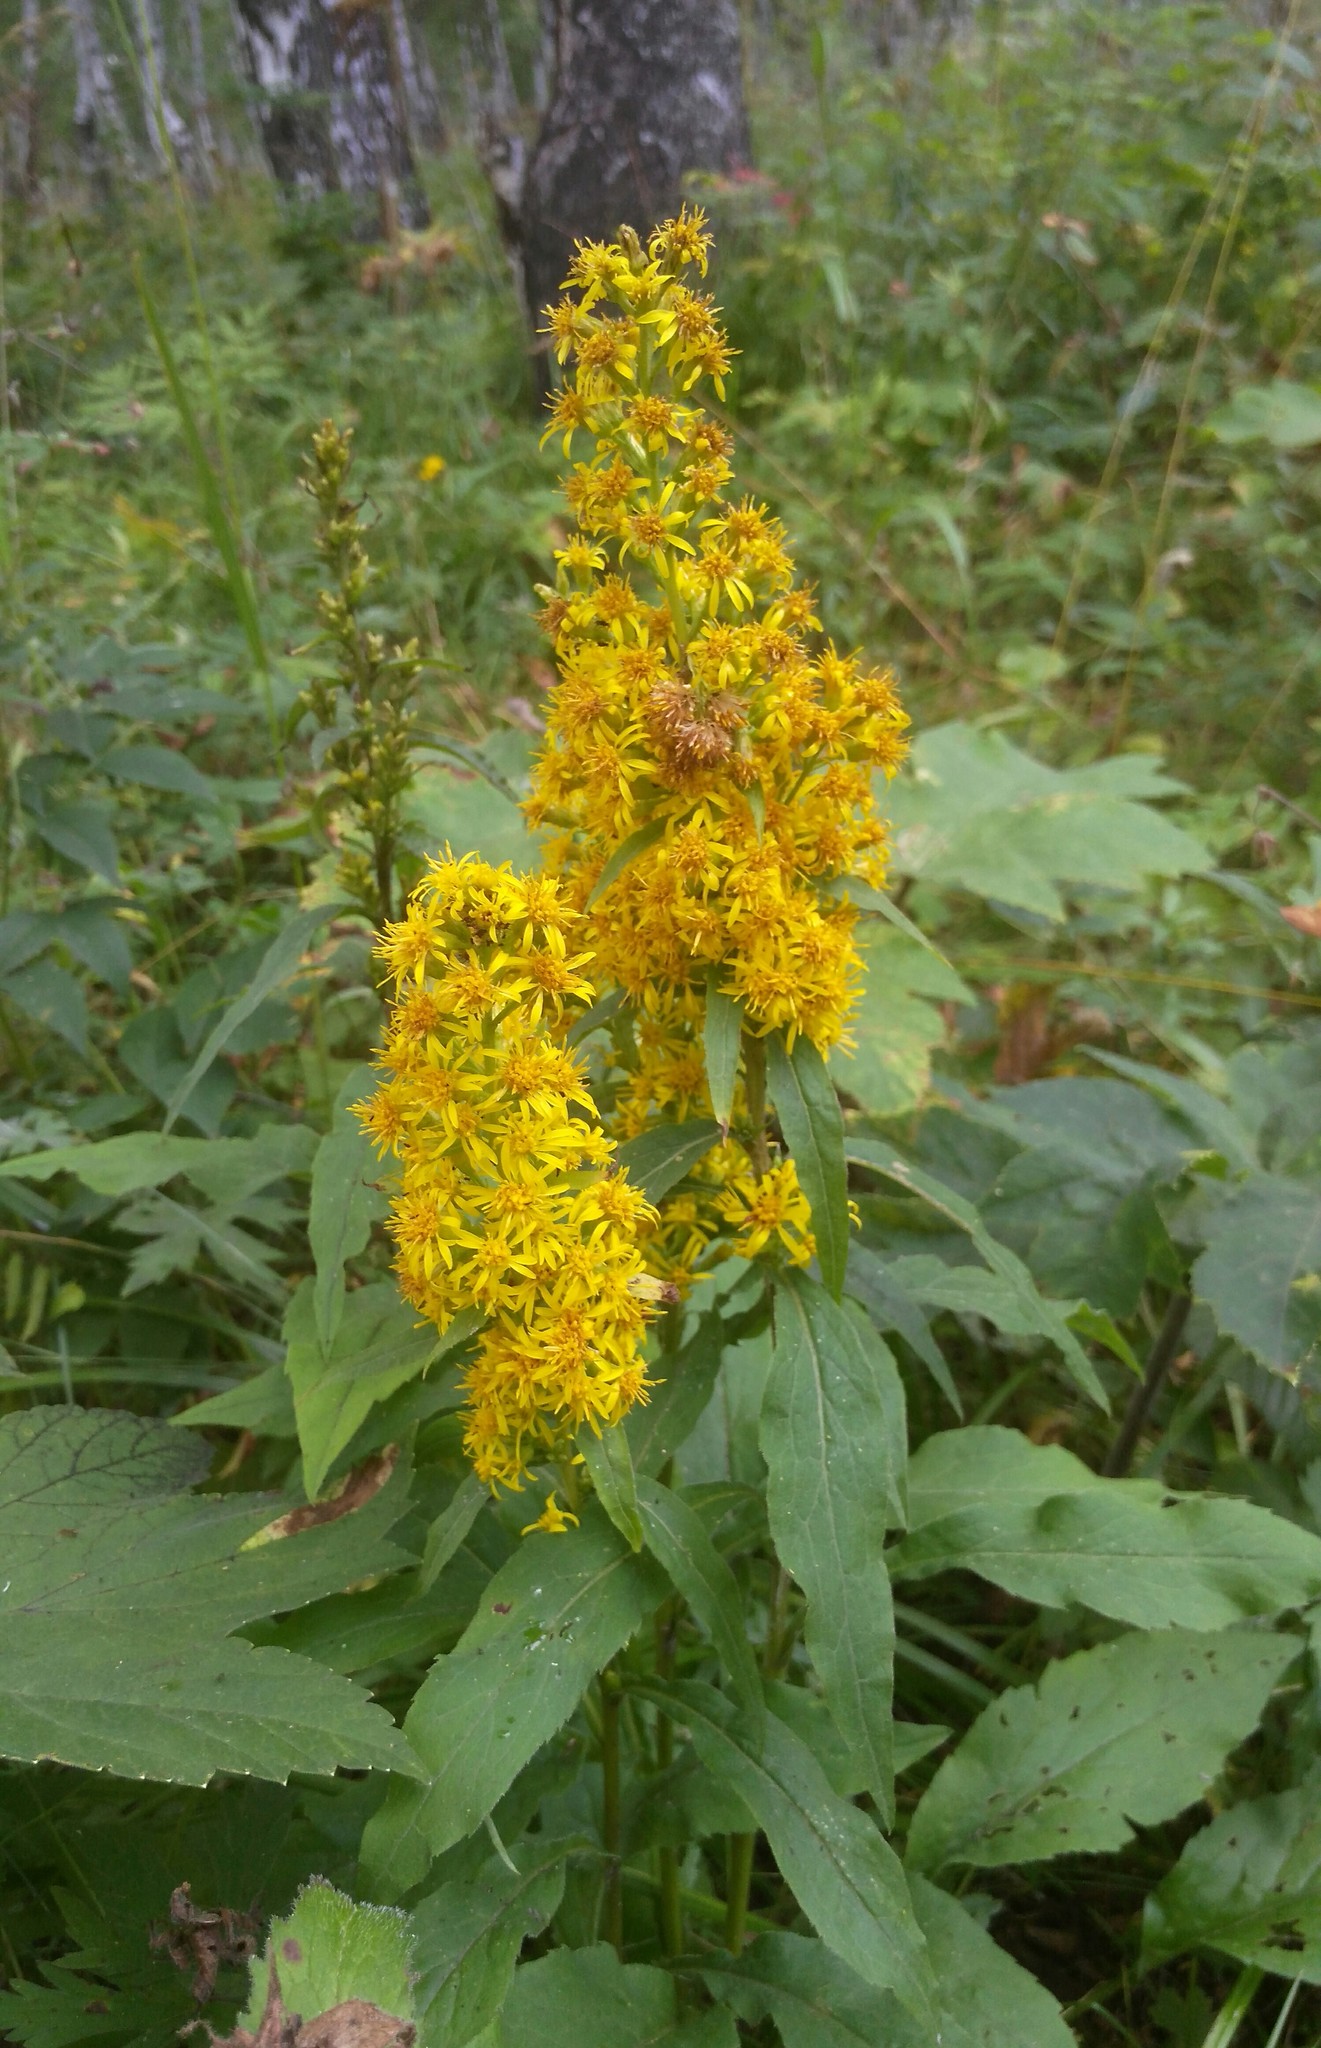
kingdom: Plantae
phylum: Tracheophyta
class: Magnoliopsida
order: Asterales
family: Asteraceae
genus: Solidago
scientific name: Solidago dahurica
